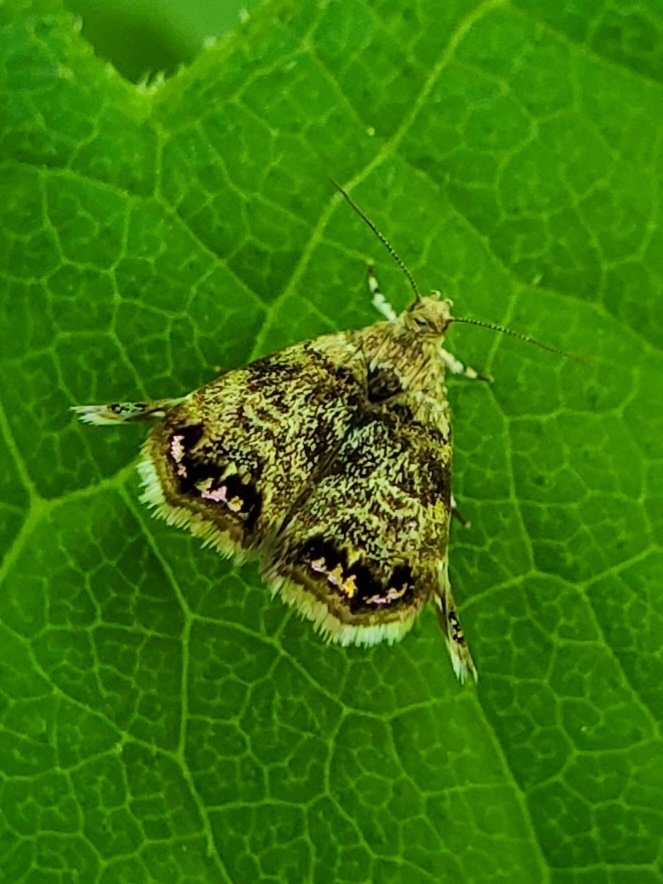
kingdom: Animalia
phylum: Arthropoda
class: Insecta
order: Lepidoptera
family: Choreutidae
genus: Brenthia
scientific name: Brenthia pavonacella
